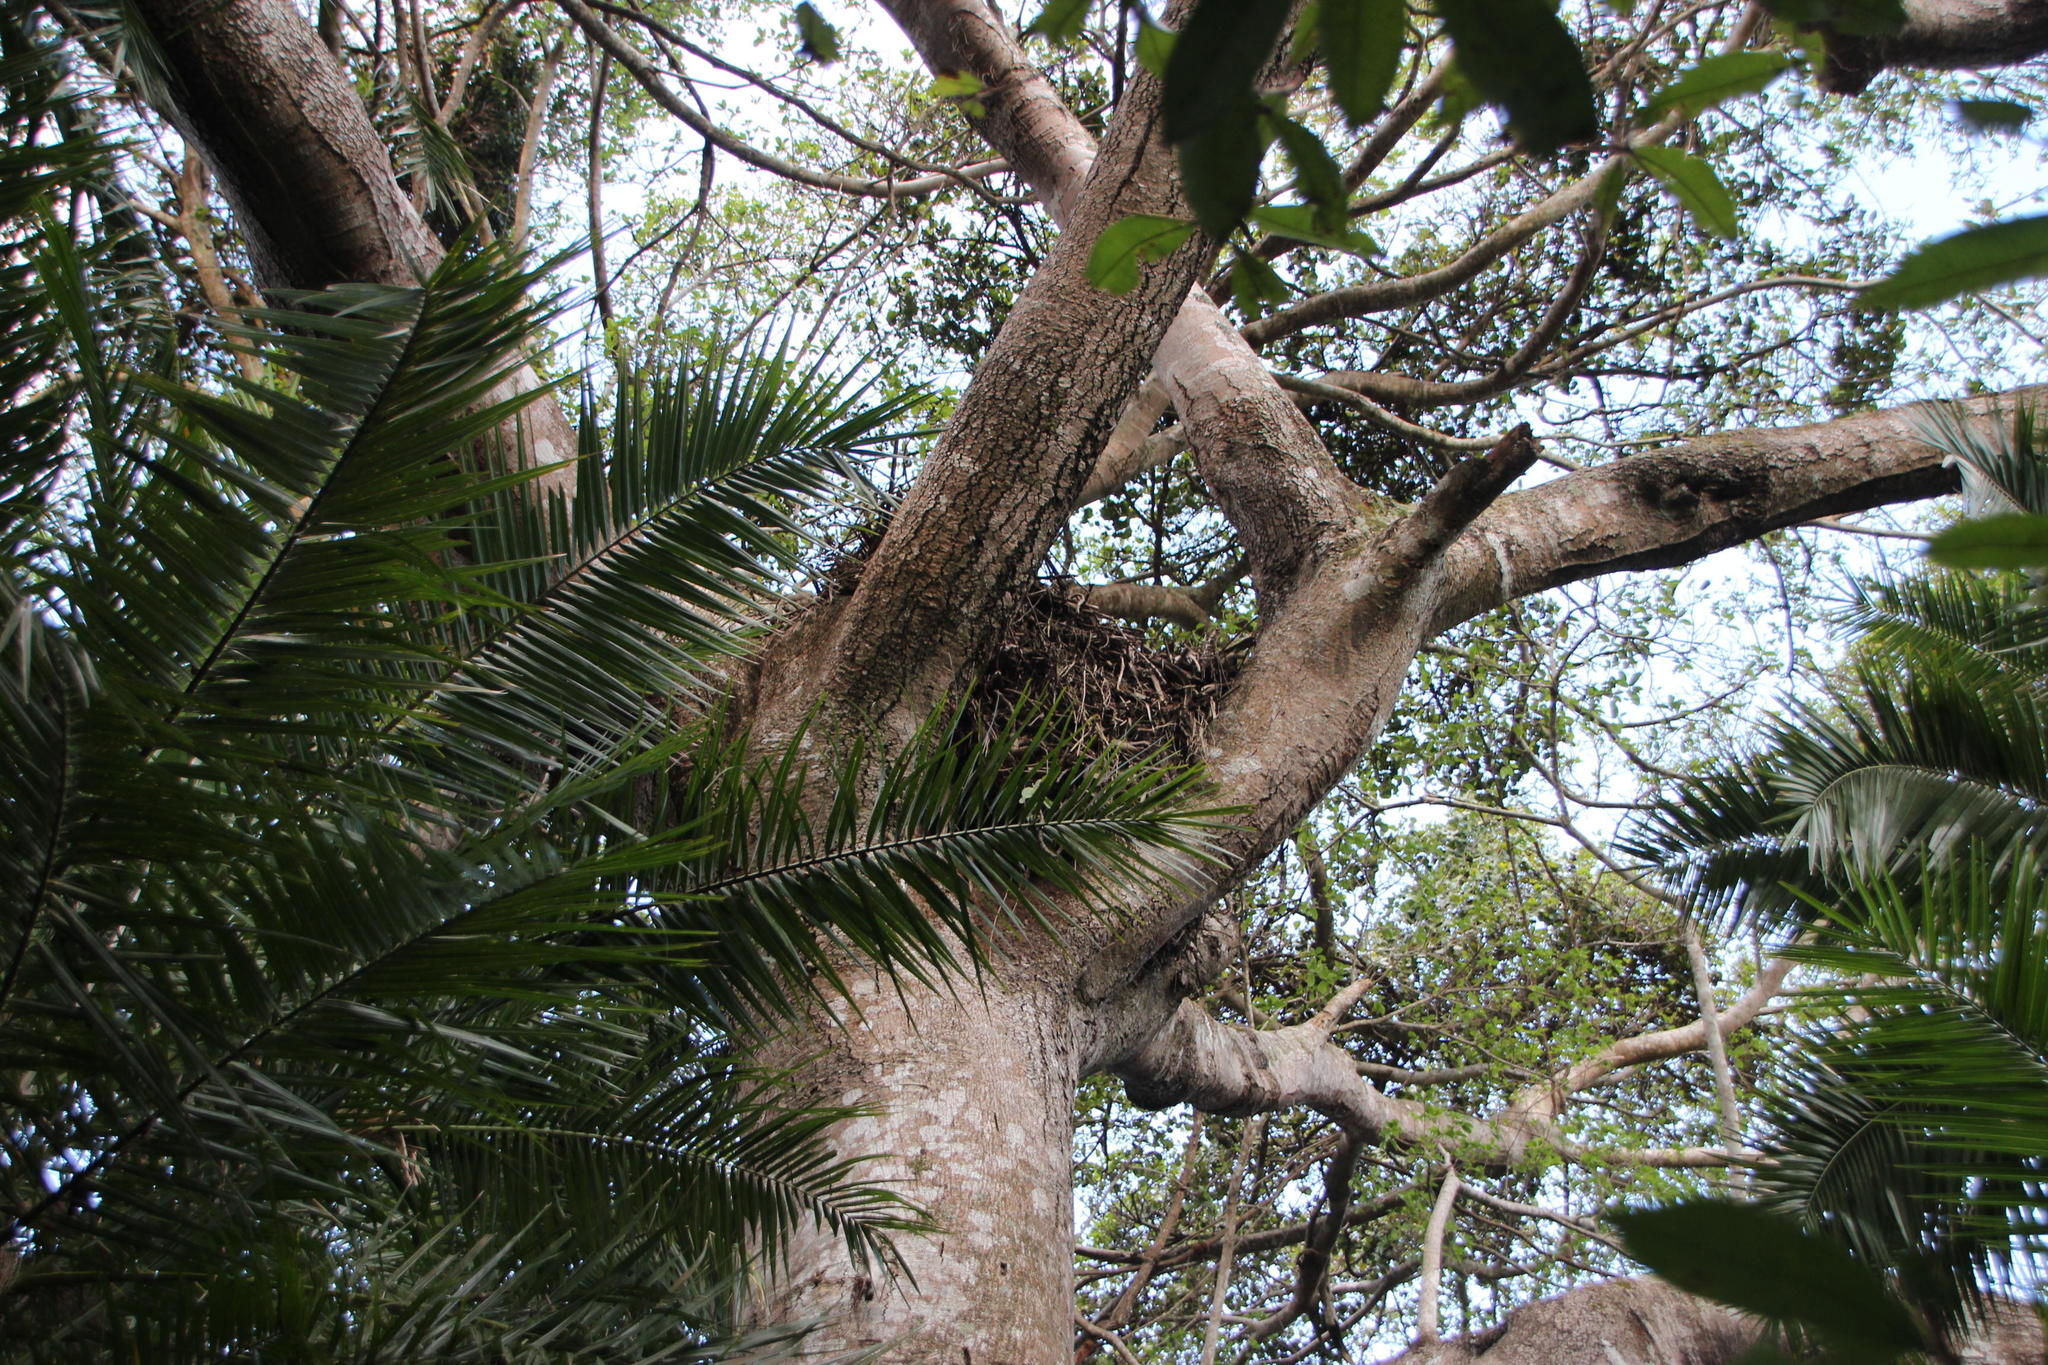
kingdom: Animalia
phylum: Chordata
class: Aves
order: Accipitriformes
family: Accipitridae
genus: Stephanoaetus
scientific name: Stephanoaetus coronatus
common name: Crowned eagle
